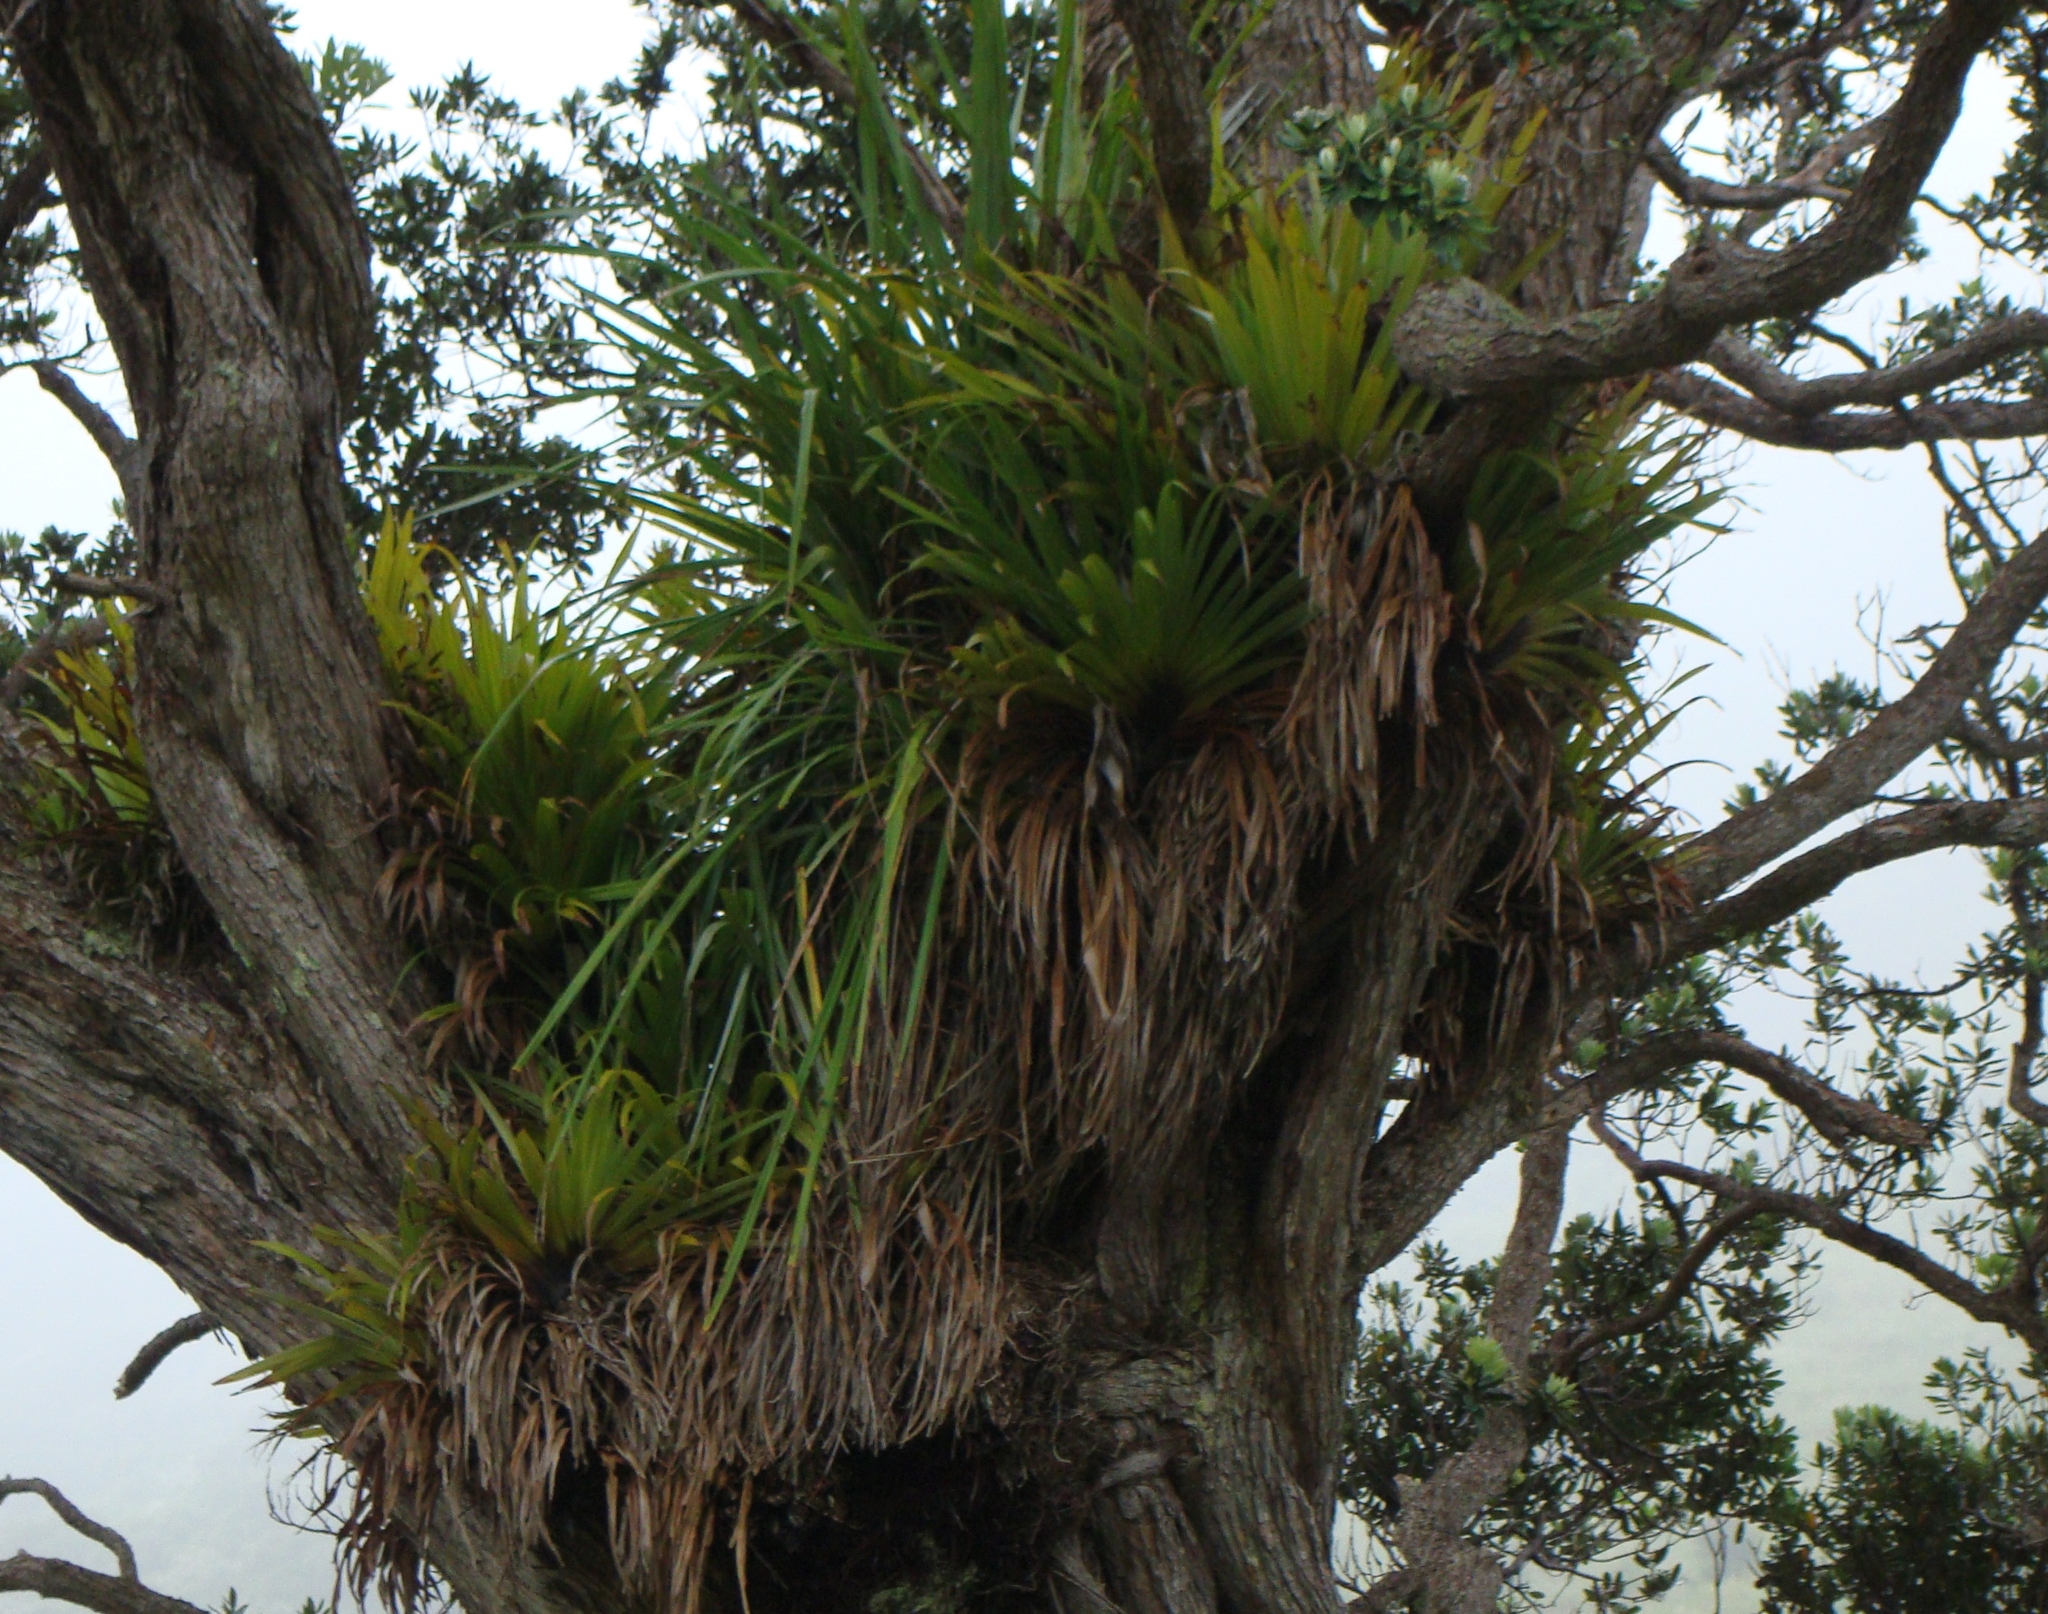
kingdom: Plantae
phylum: Tracheophyta
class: Liliopsida
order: Asparagales
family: Asteliaceae
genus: Astelia
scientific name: Astelia hastata
